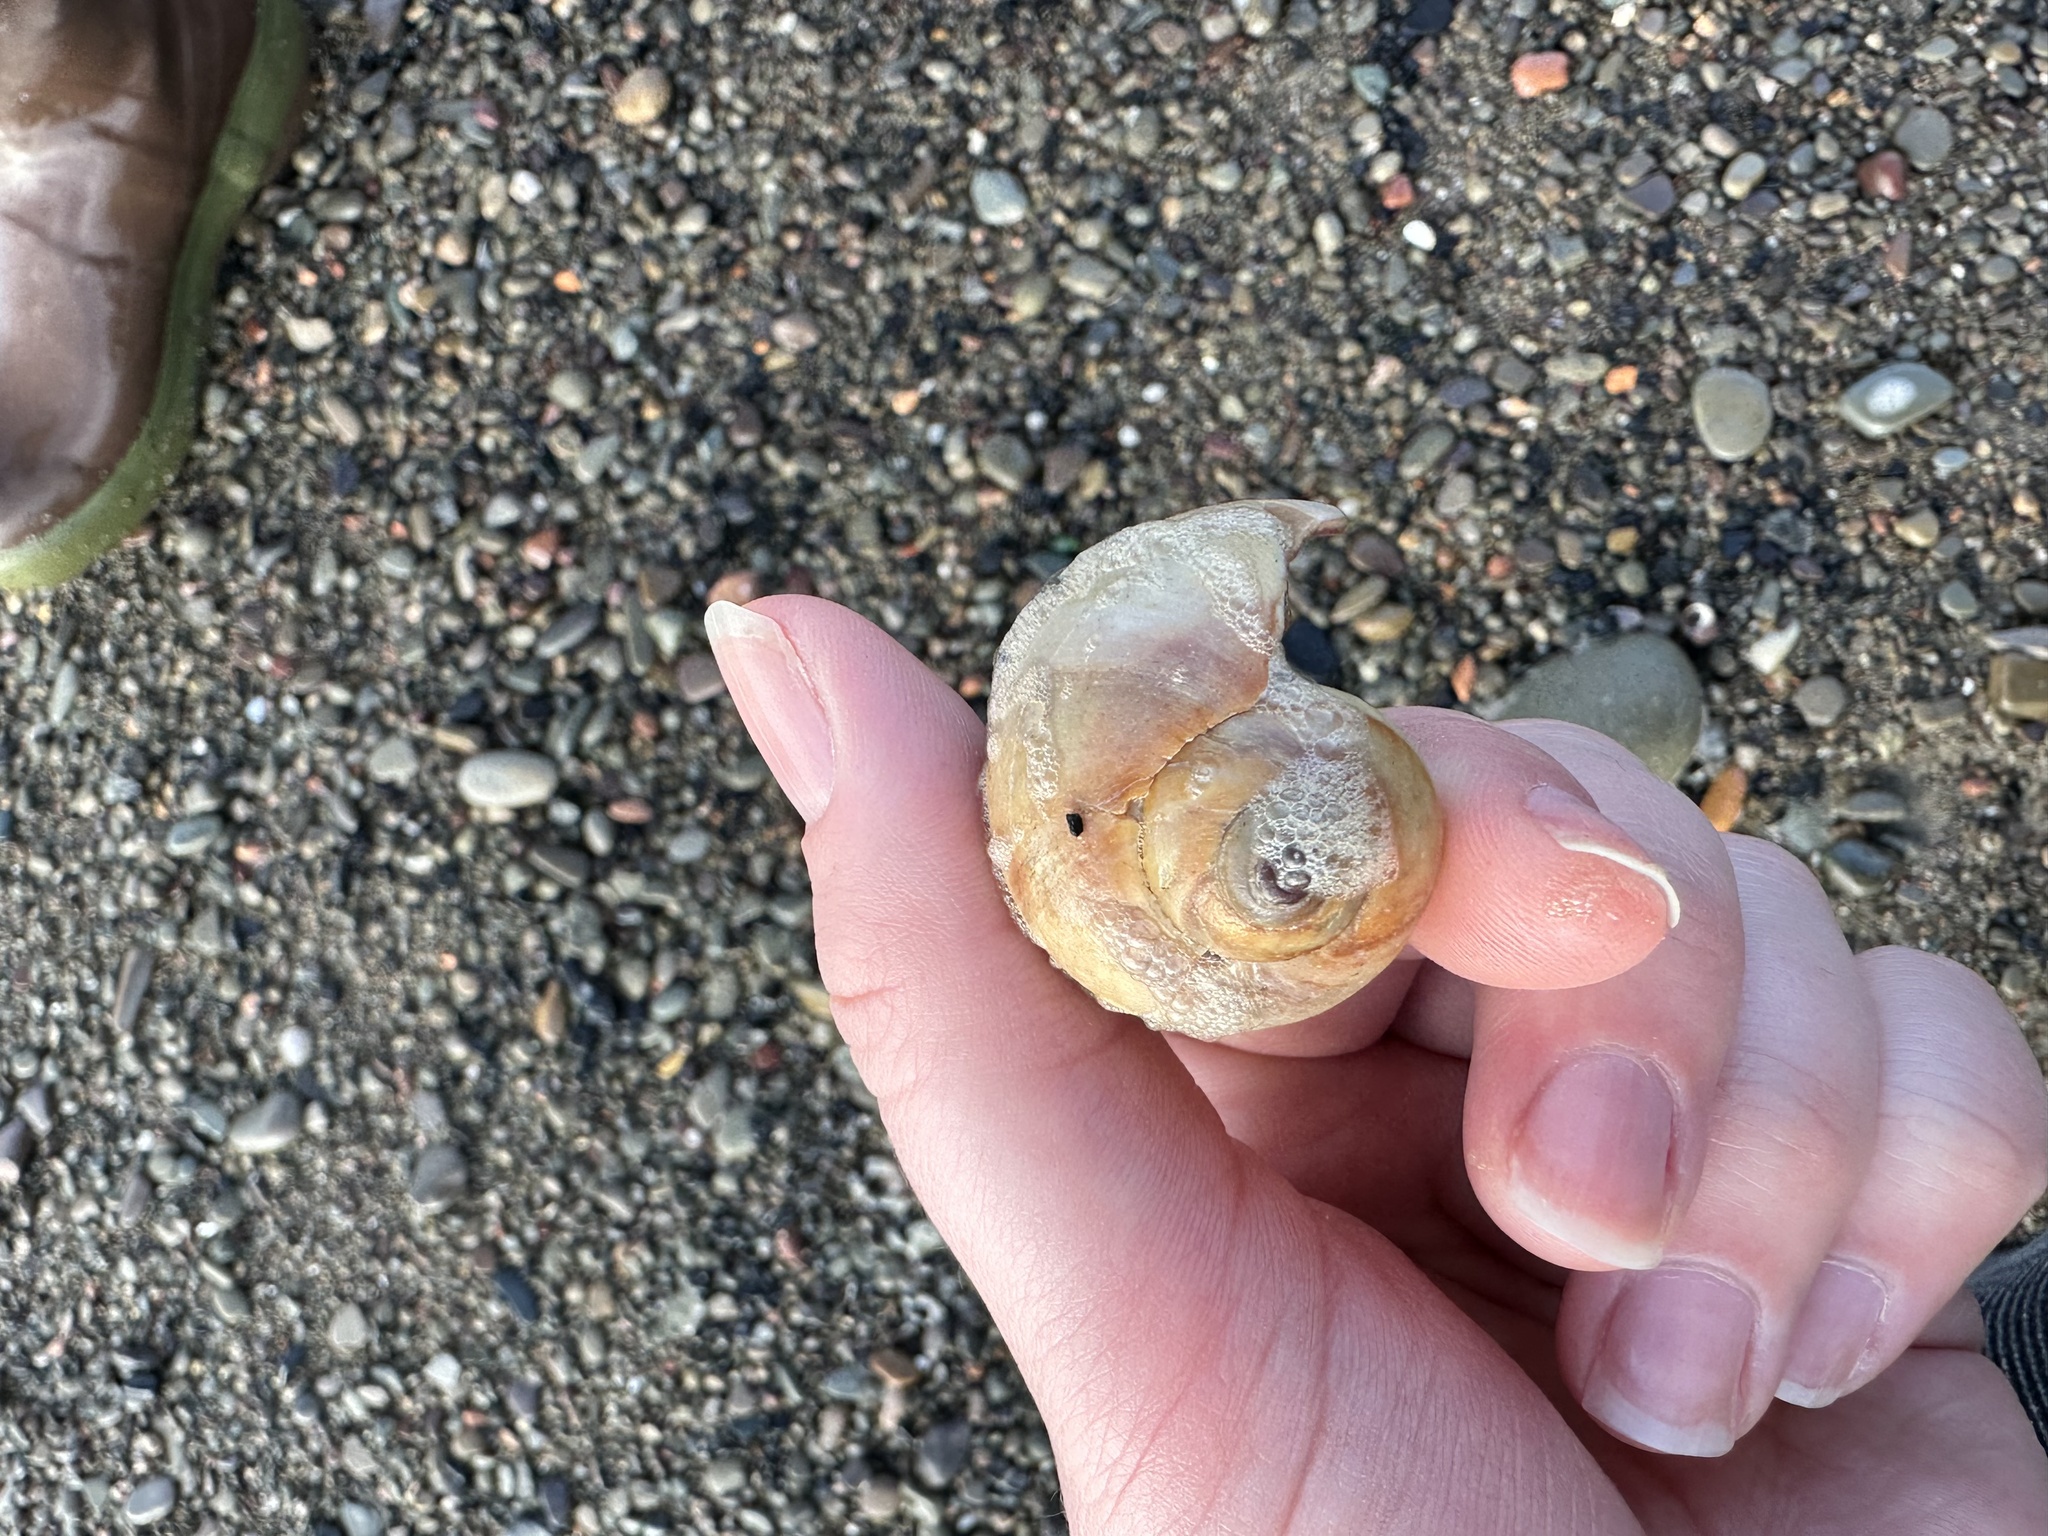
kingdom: Animalia
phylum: Mollusca
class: Gastropoda
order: Littorinimorpha
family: Naticidae
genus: Euspira
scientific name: Euspira heros
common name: Common northern moonsnail
